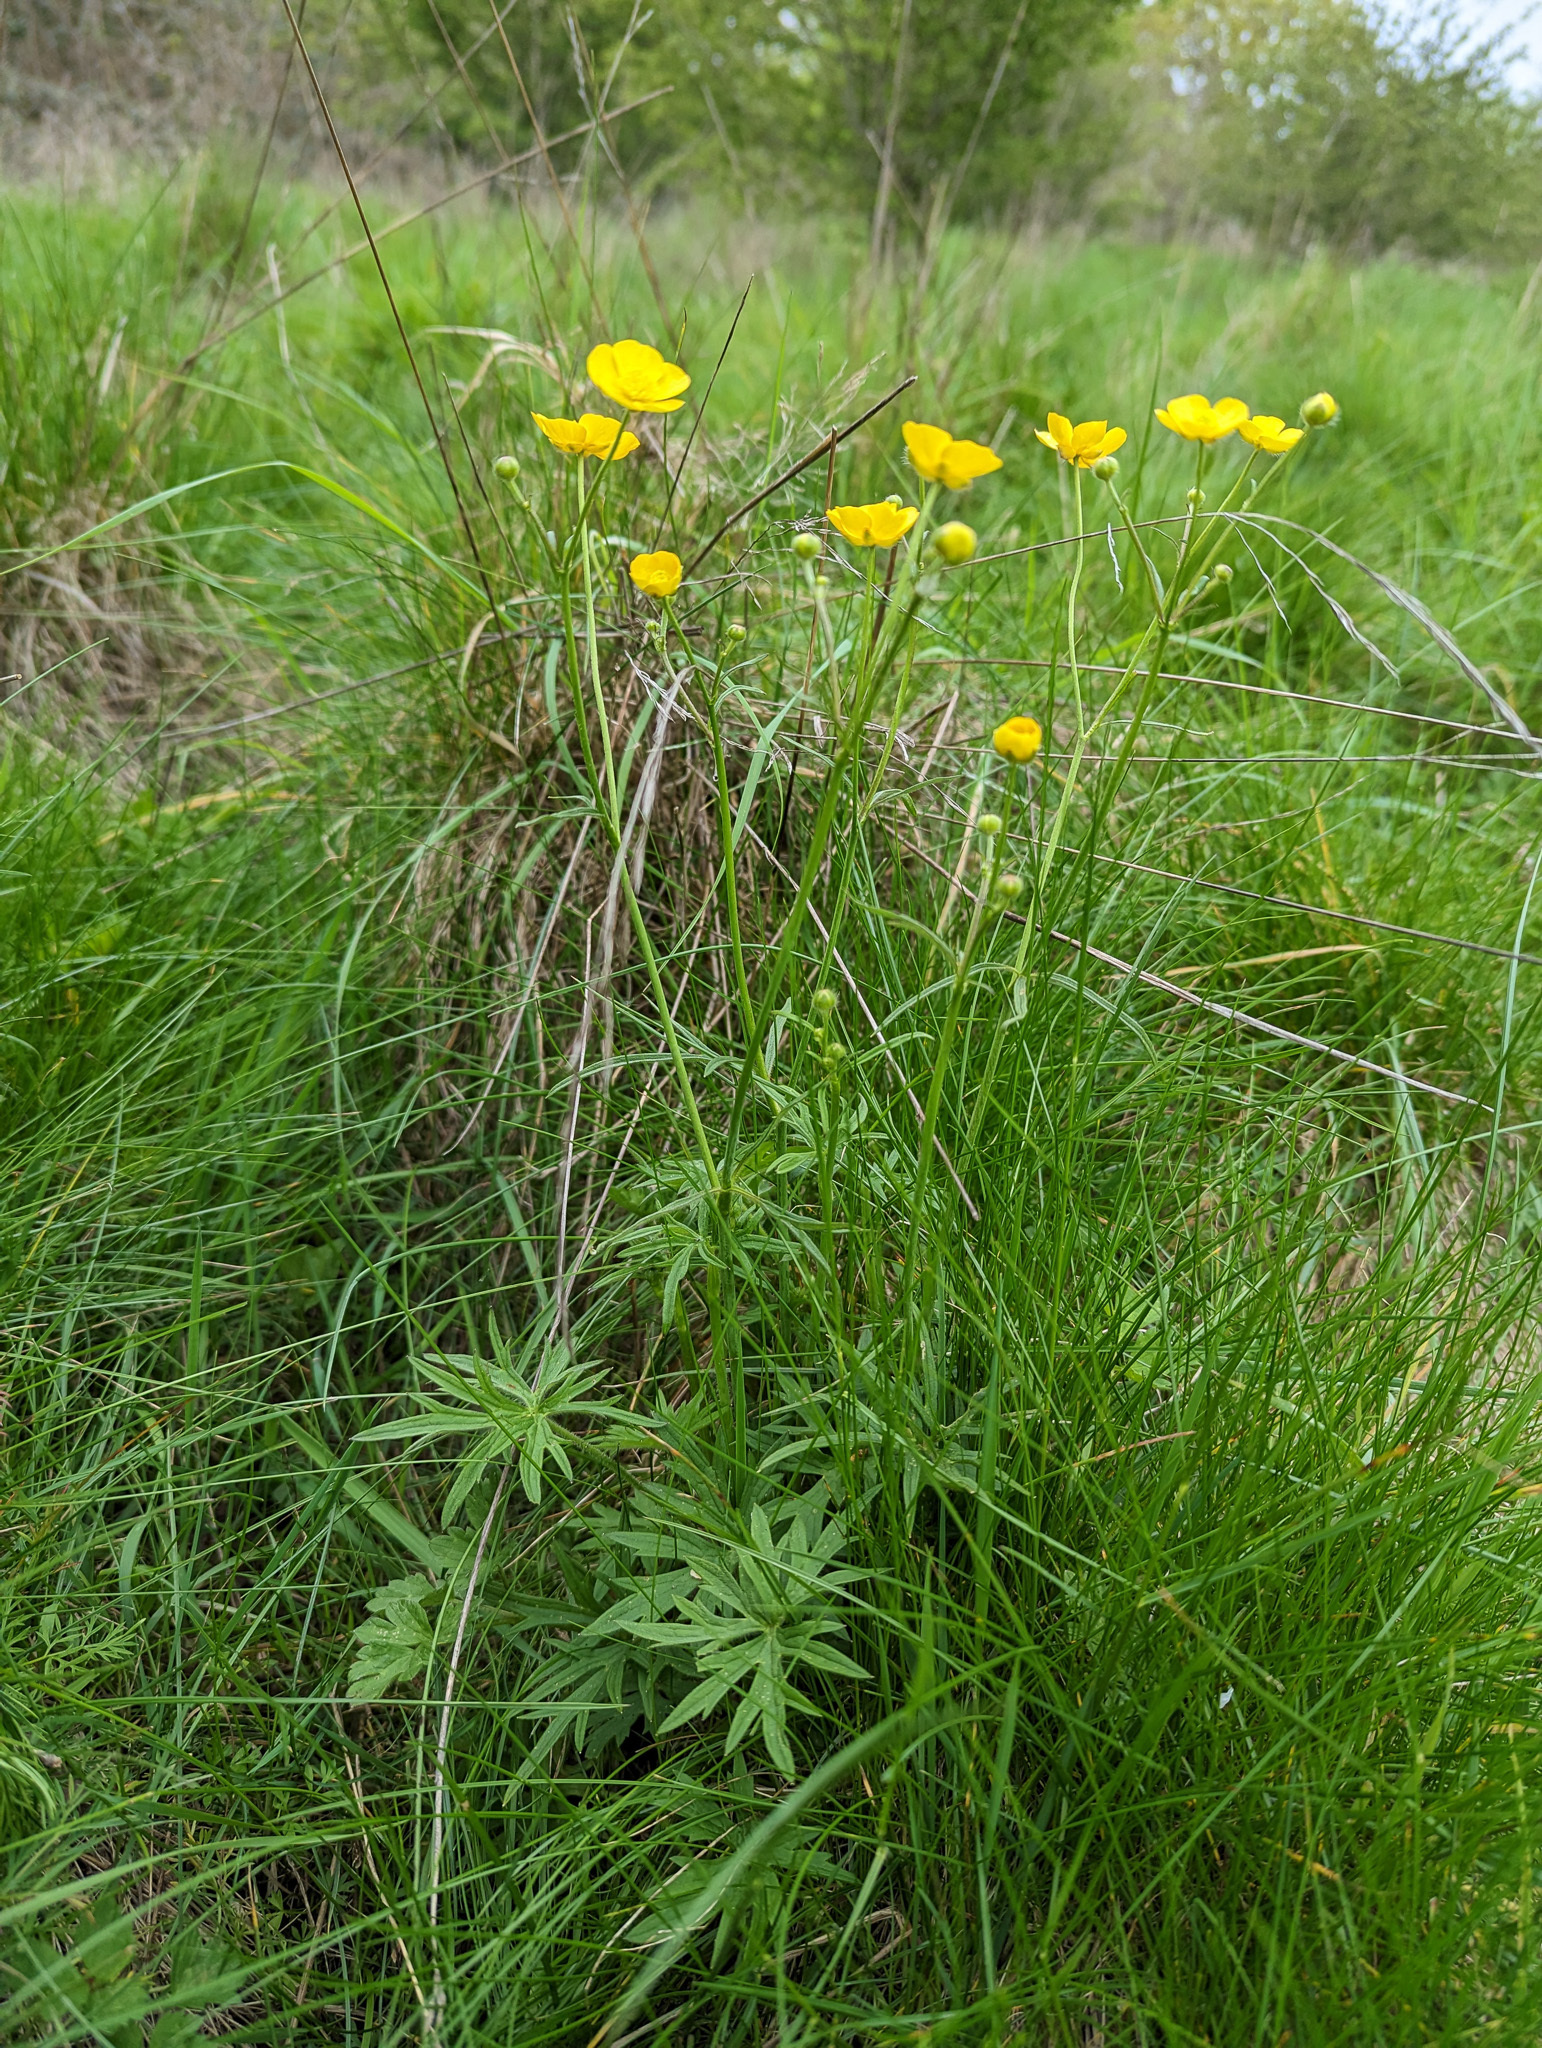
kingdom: Plantae
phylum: Tracheophyta
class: Magnoliopsida
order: Ranunculales
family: Ranunculaceae
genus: Ranunculus
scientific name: Ranunculus acris
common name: Meadow buttercup
